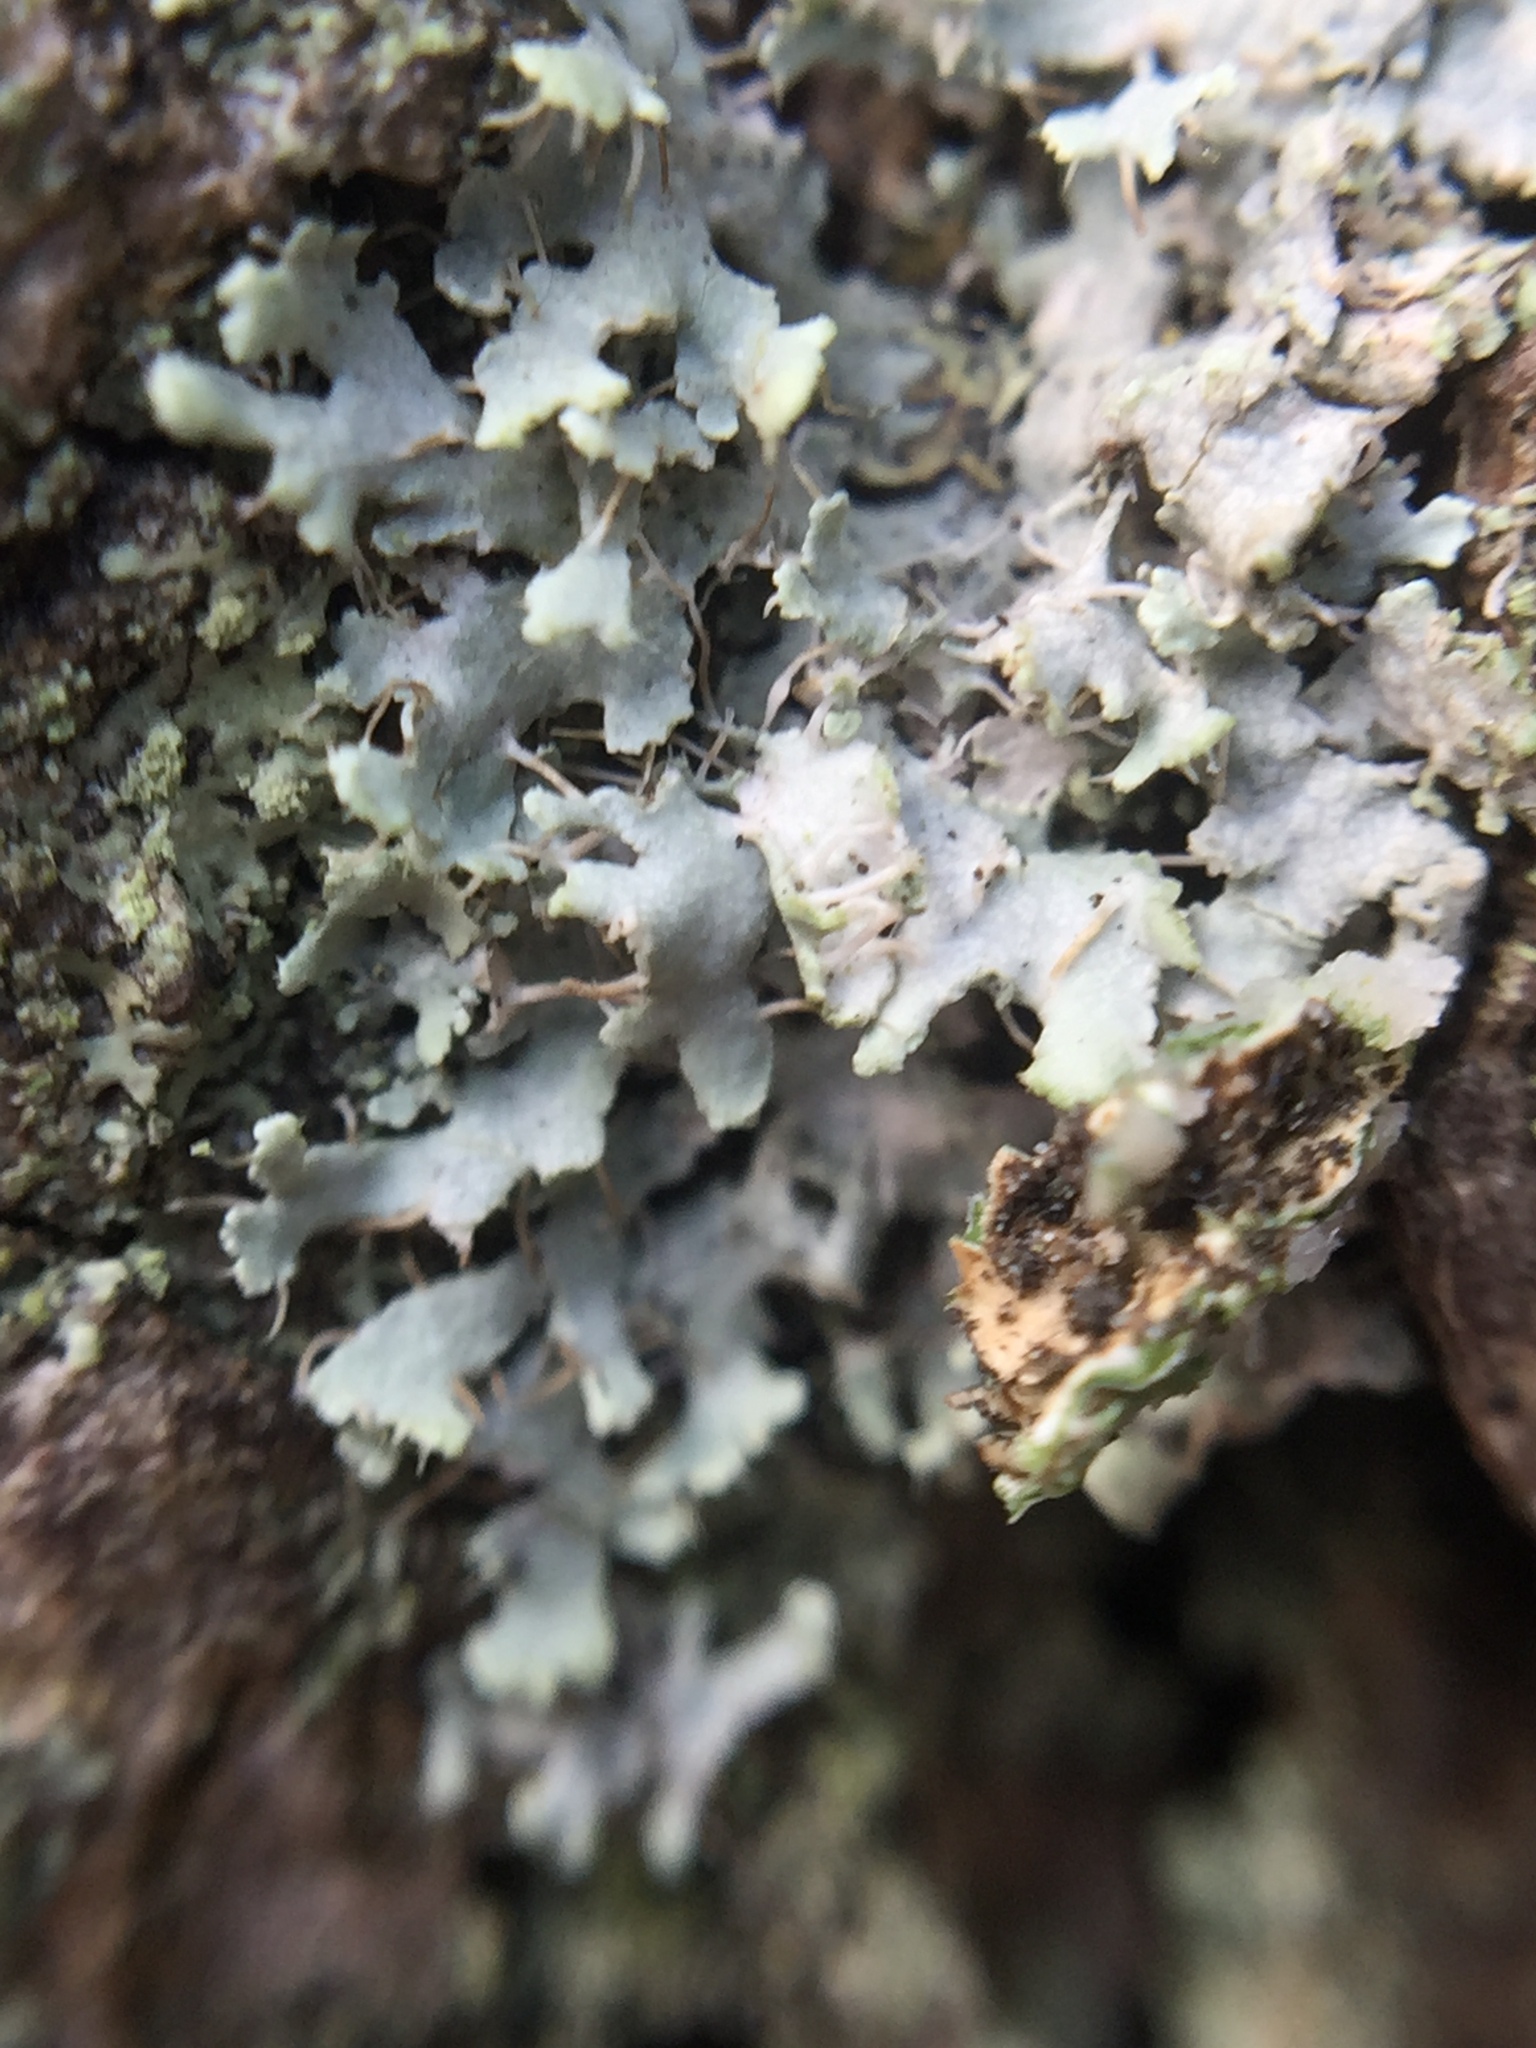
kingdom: Fungi
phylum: Ascomycota
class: Lecanoromycetes
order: Caliciales
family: Physciaceae
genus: Physcia
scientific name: Physcia adscendens
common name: Hooded rosette lichen
